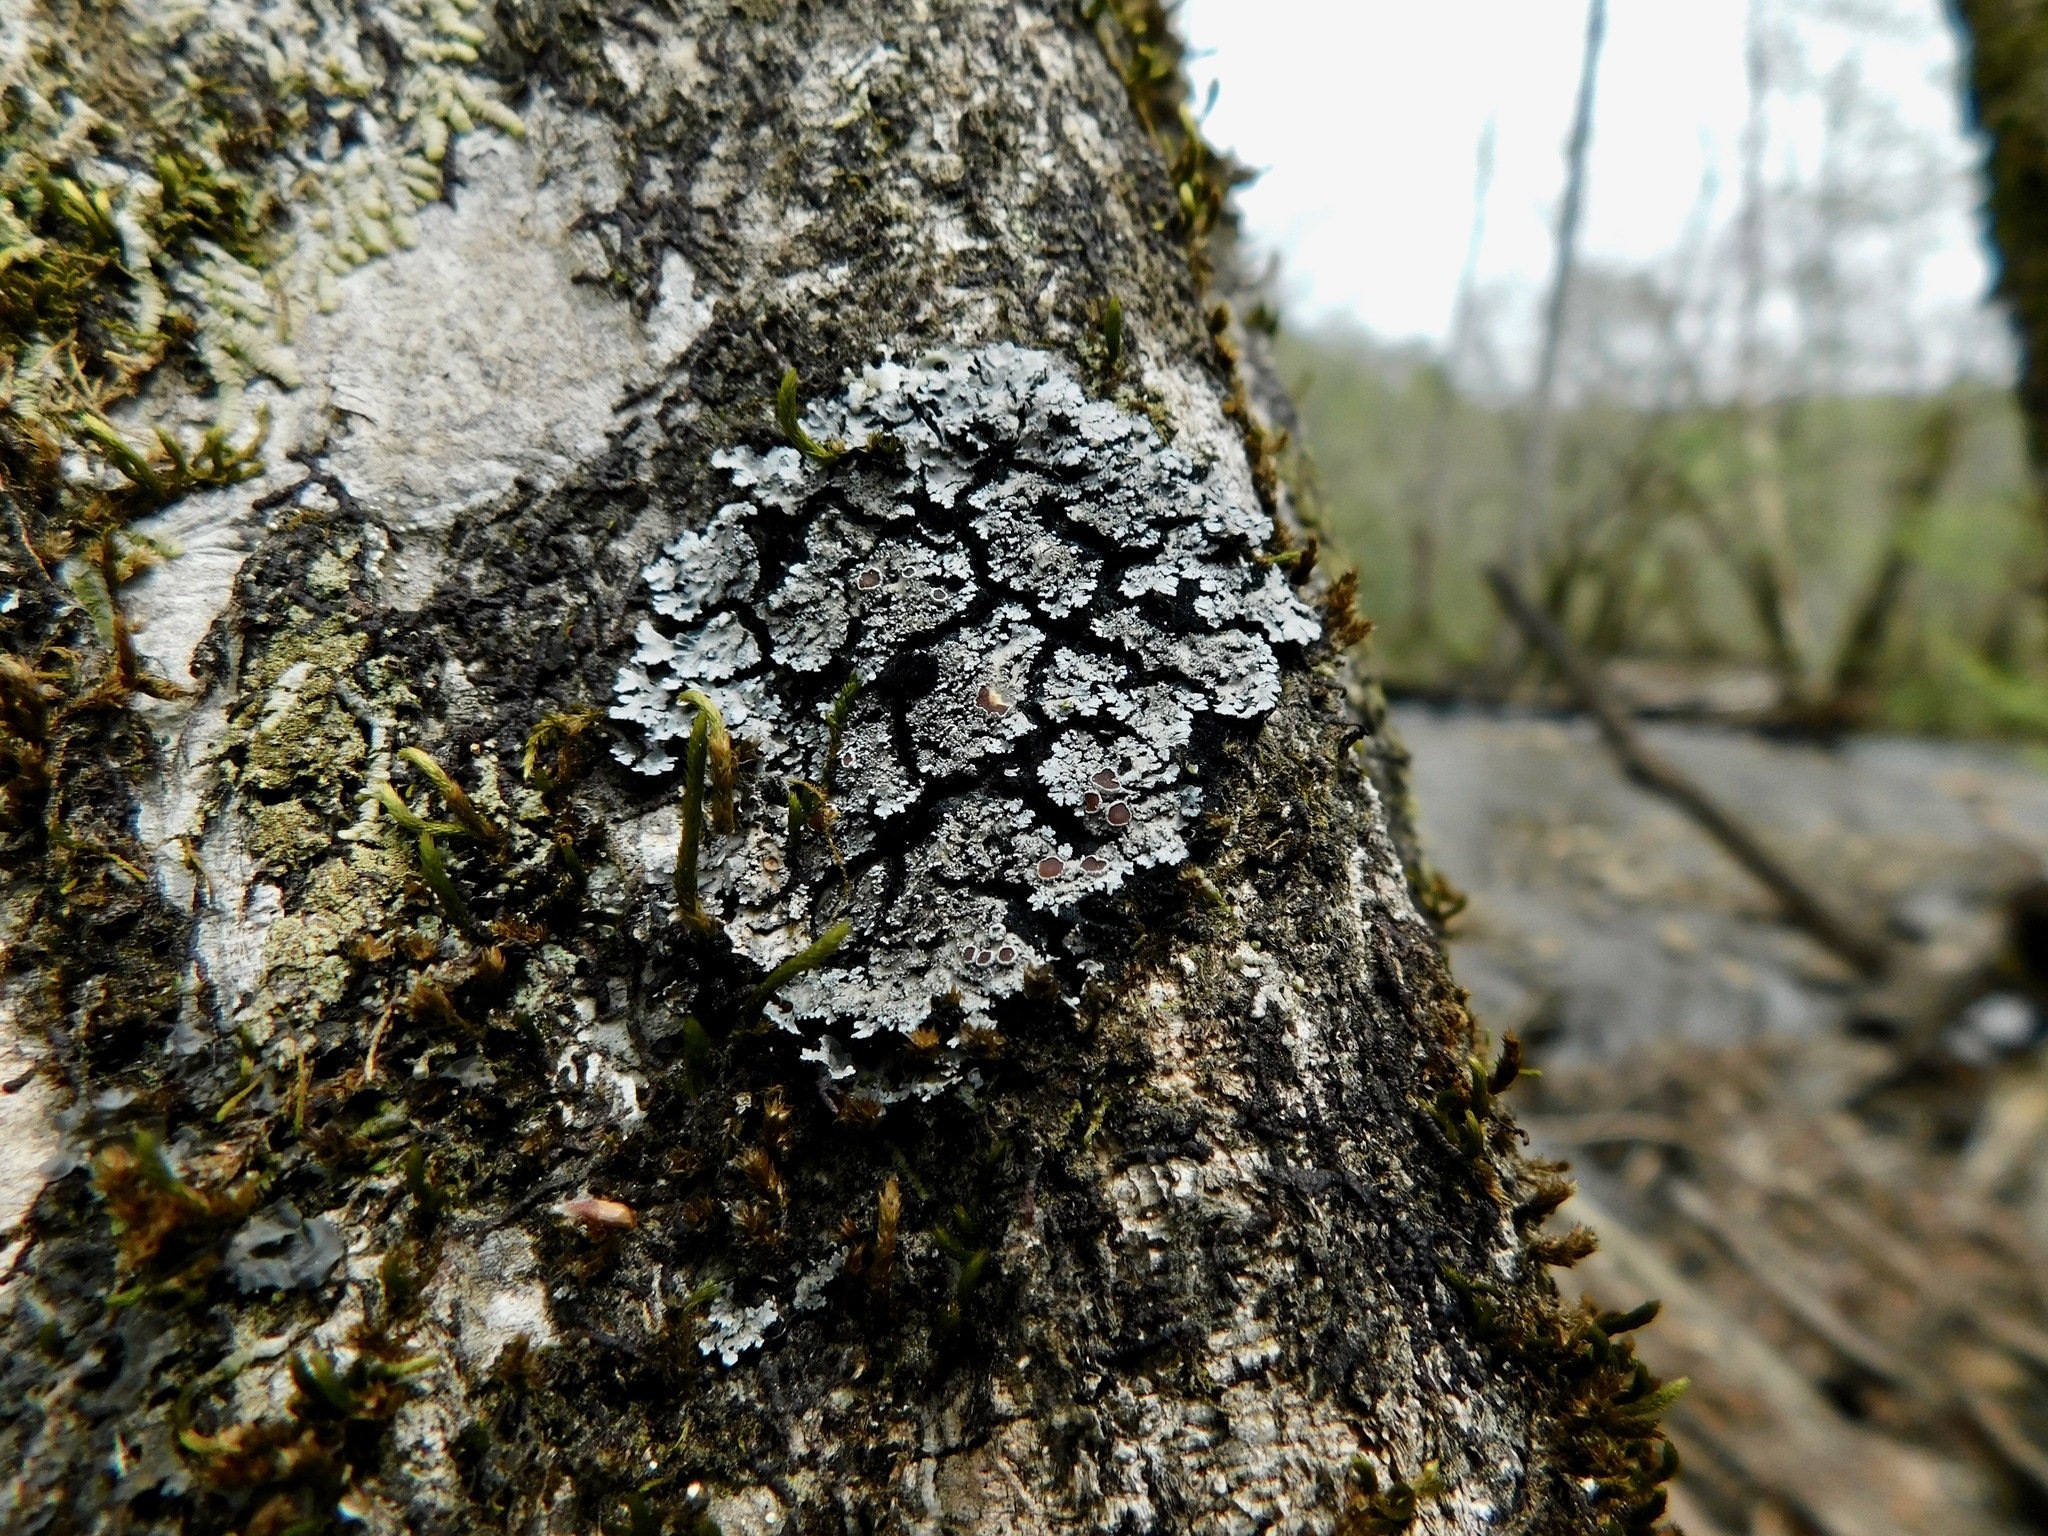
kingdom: Fungi
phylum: Ascomycota
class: Lecanoromycetes
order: Peltigerales
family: Pannariaceae
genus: Pannaria
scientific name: Pannaria tavaresii
